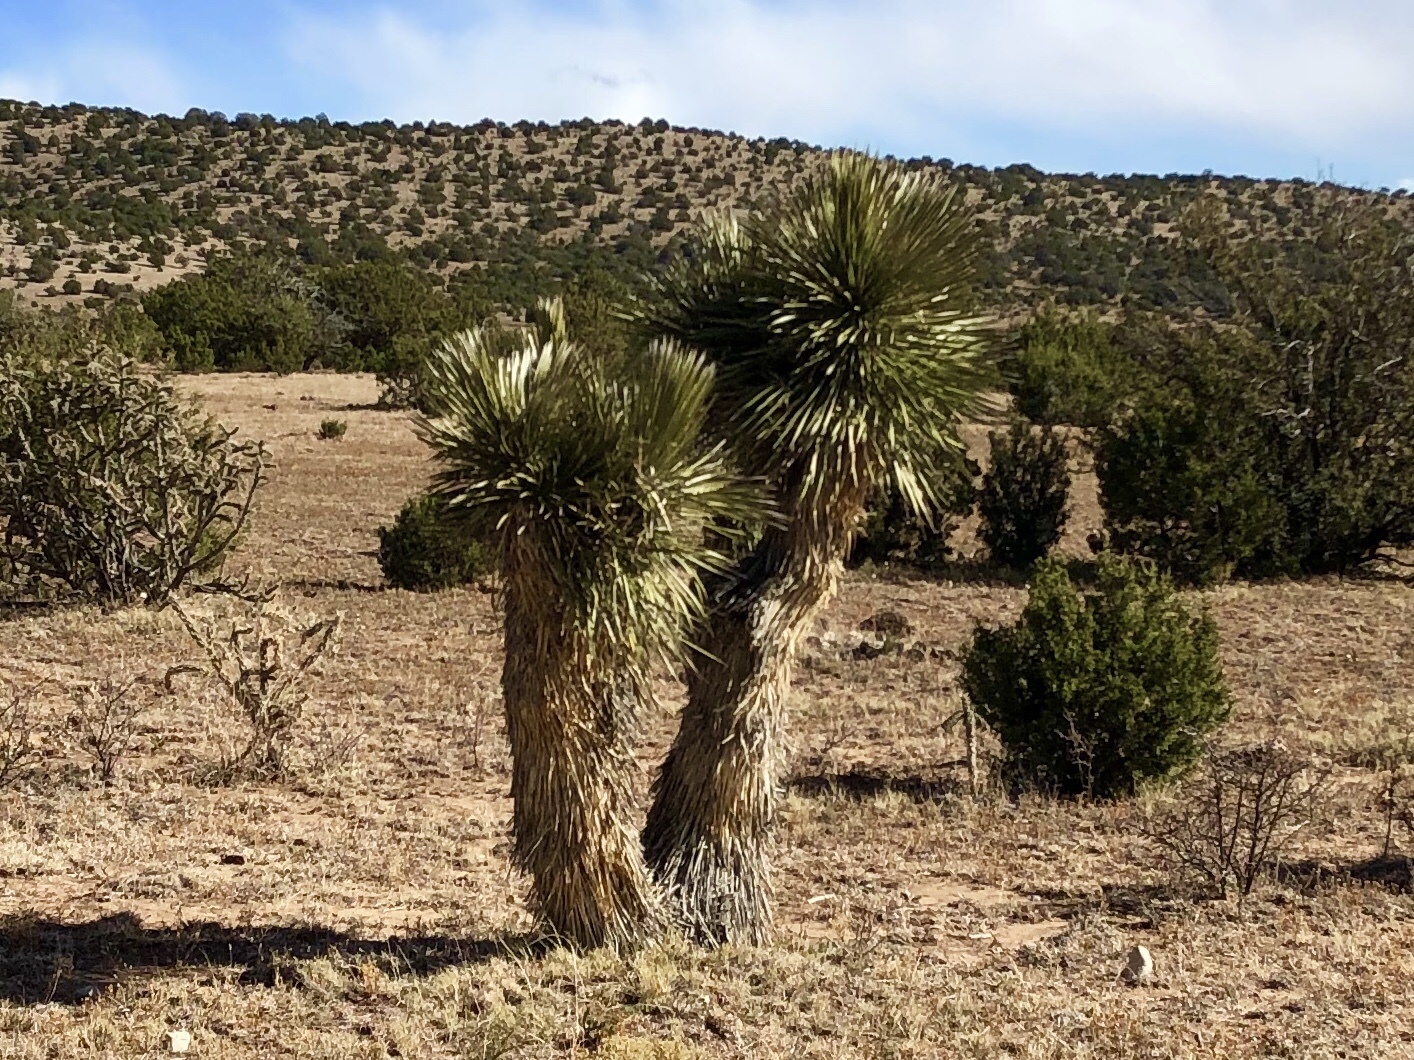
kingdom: Plantae
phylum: Tracheophyta
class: Liliopsida
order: Asparagales
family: Asparagaceae
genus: Yucca
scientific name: Yucca elata
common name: Palmella
